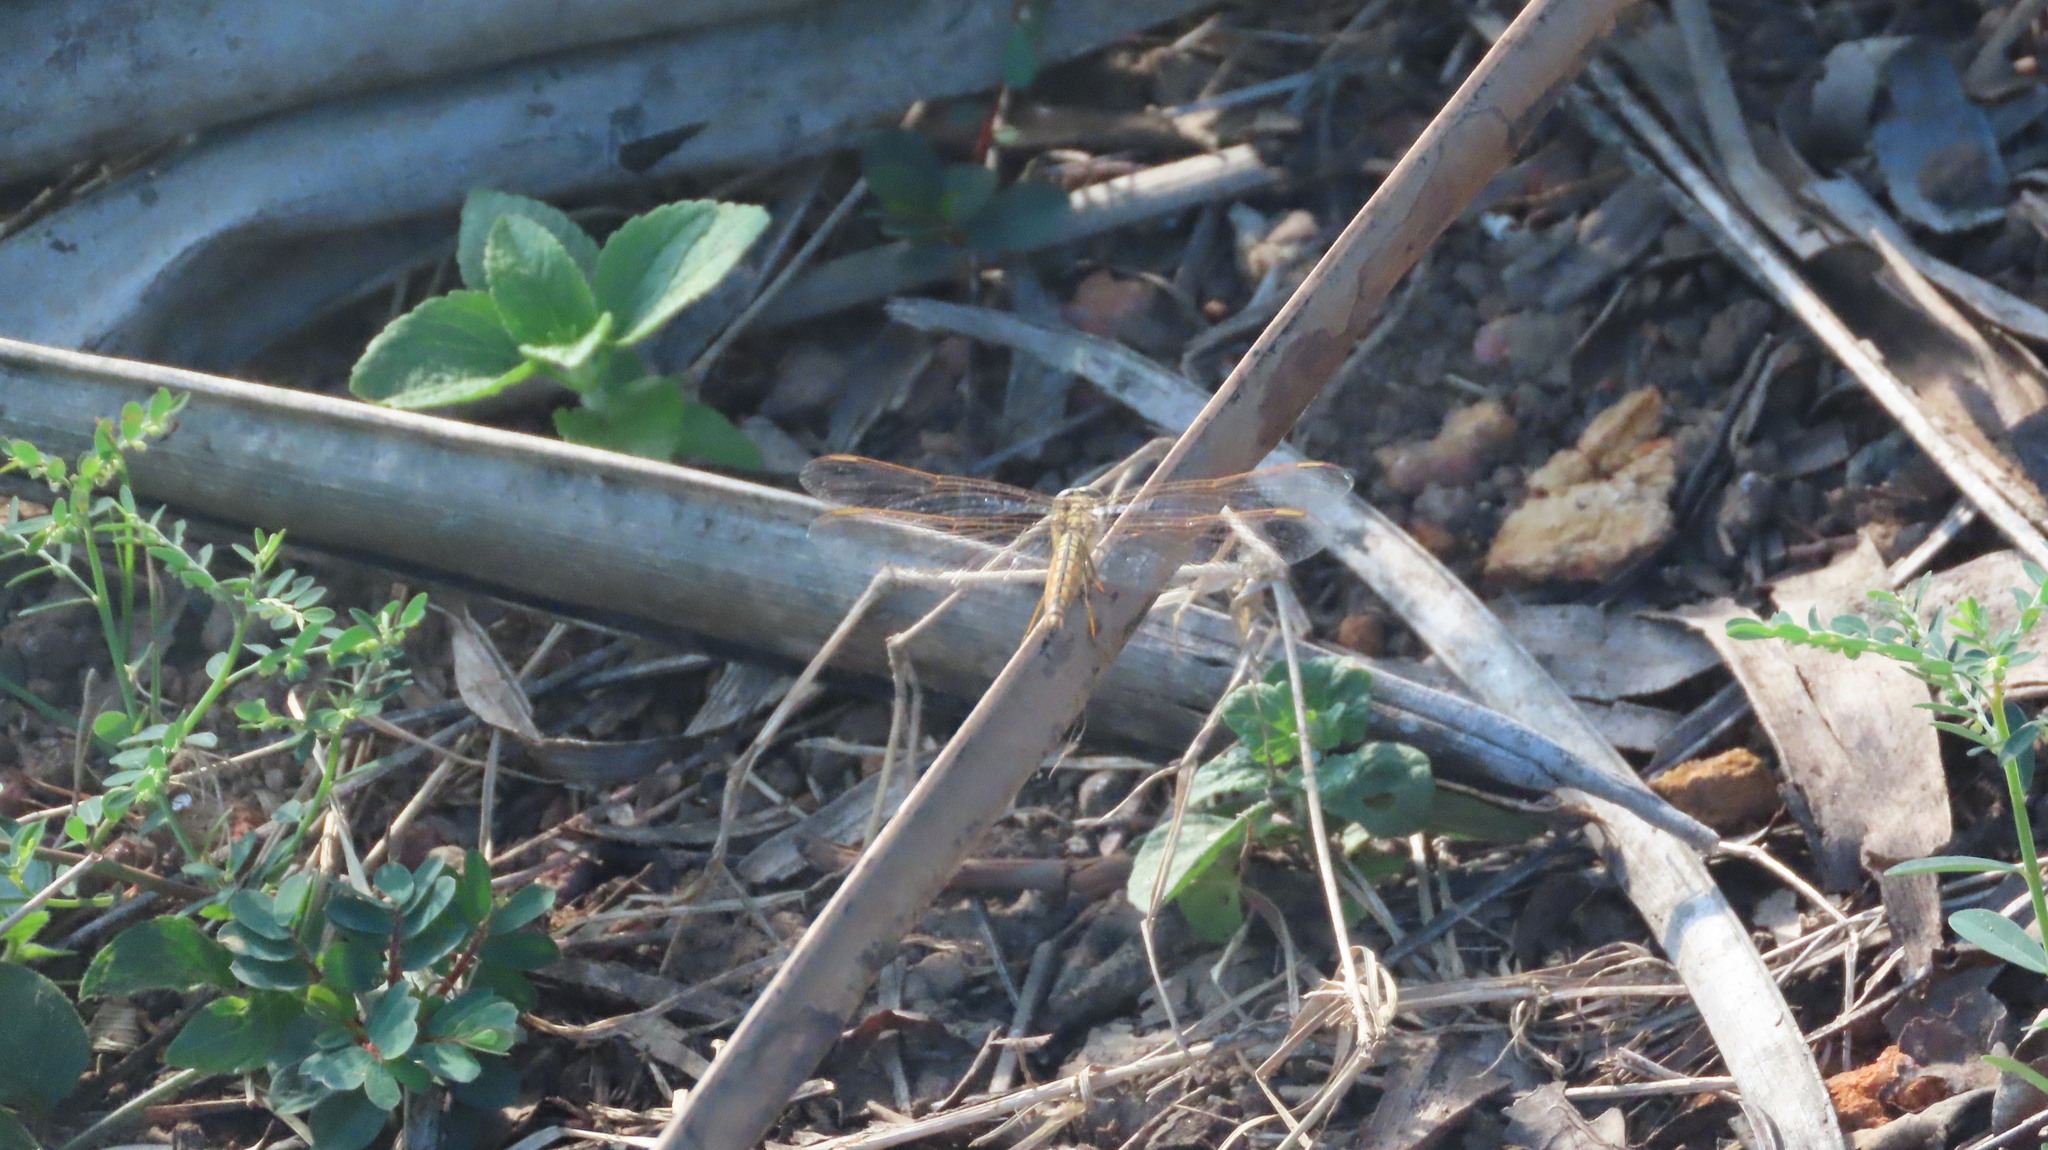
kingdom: Animalia
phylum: Arthropoda
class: Insecta
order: Odonata
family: Libellulidae
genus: Brachythemis
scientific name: Brachythemis contaminata
